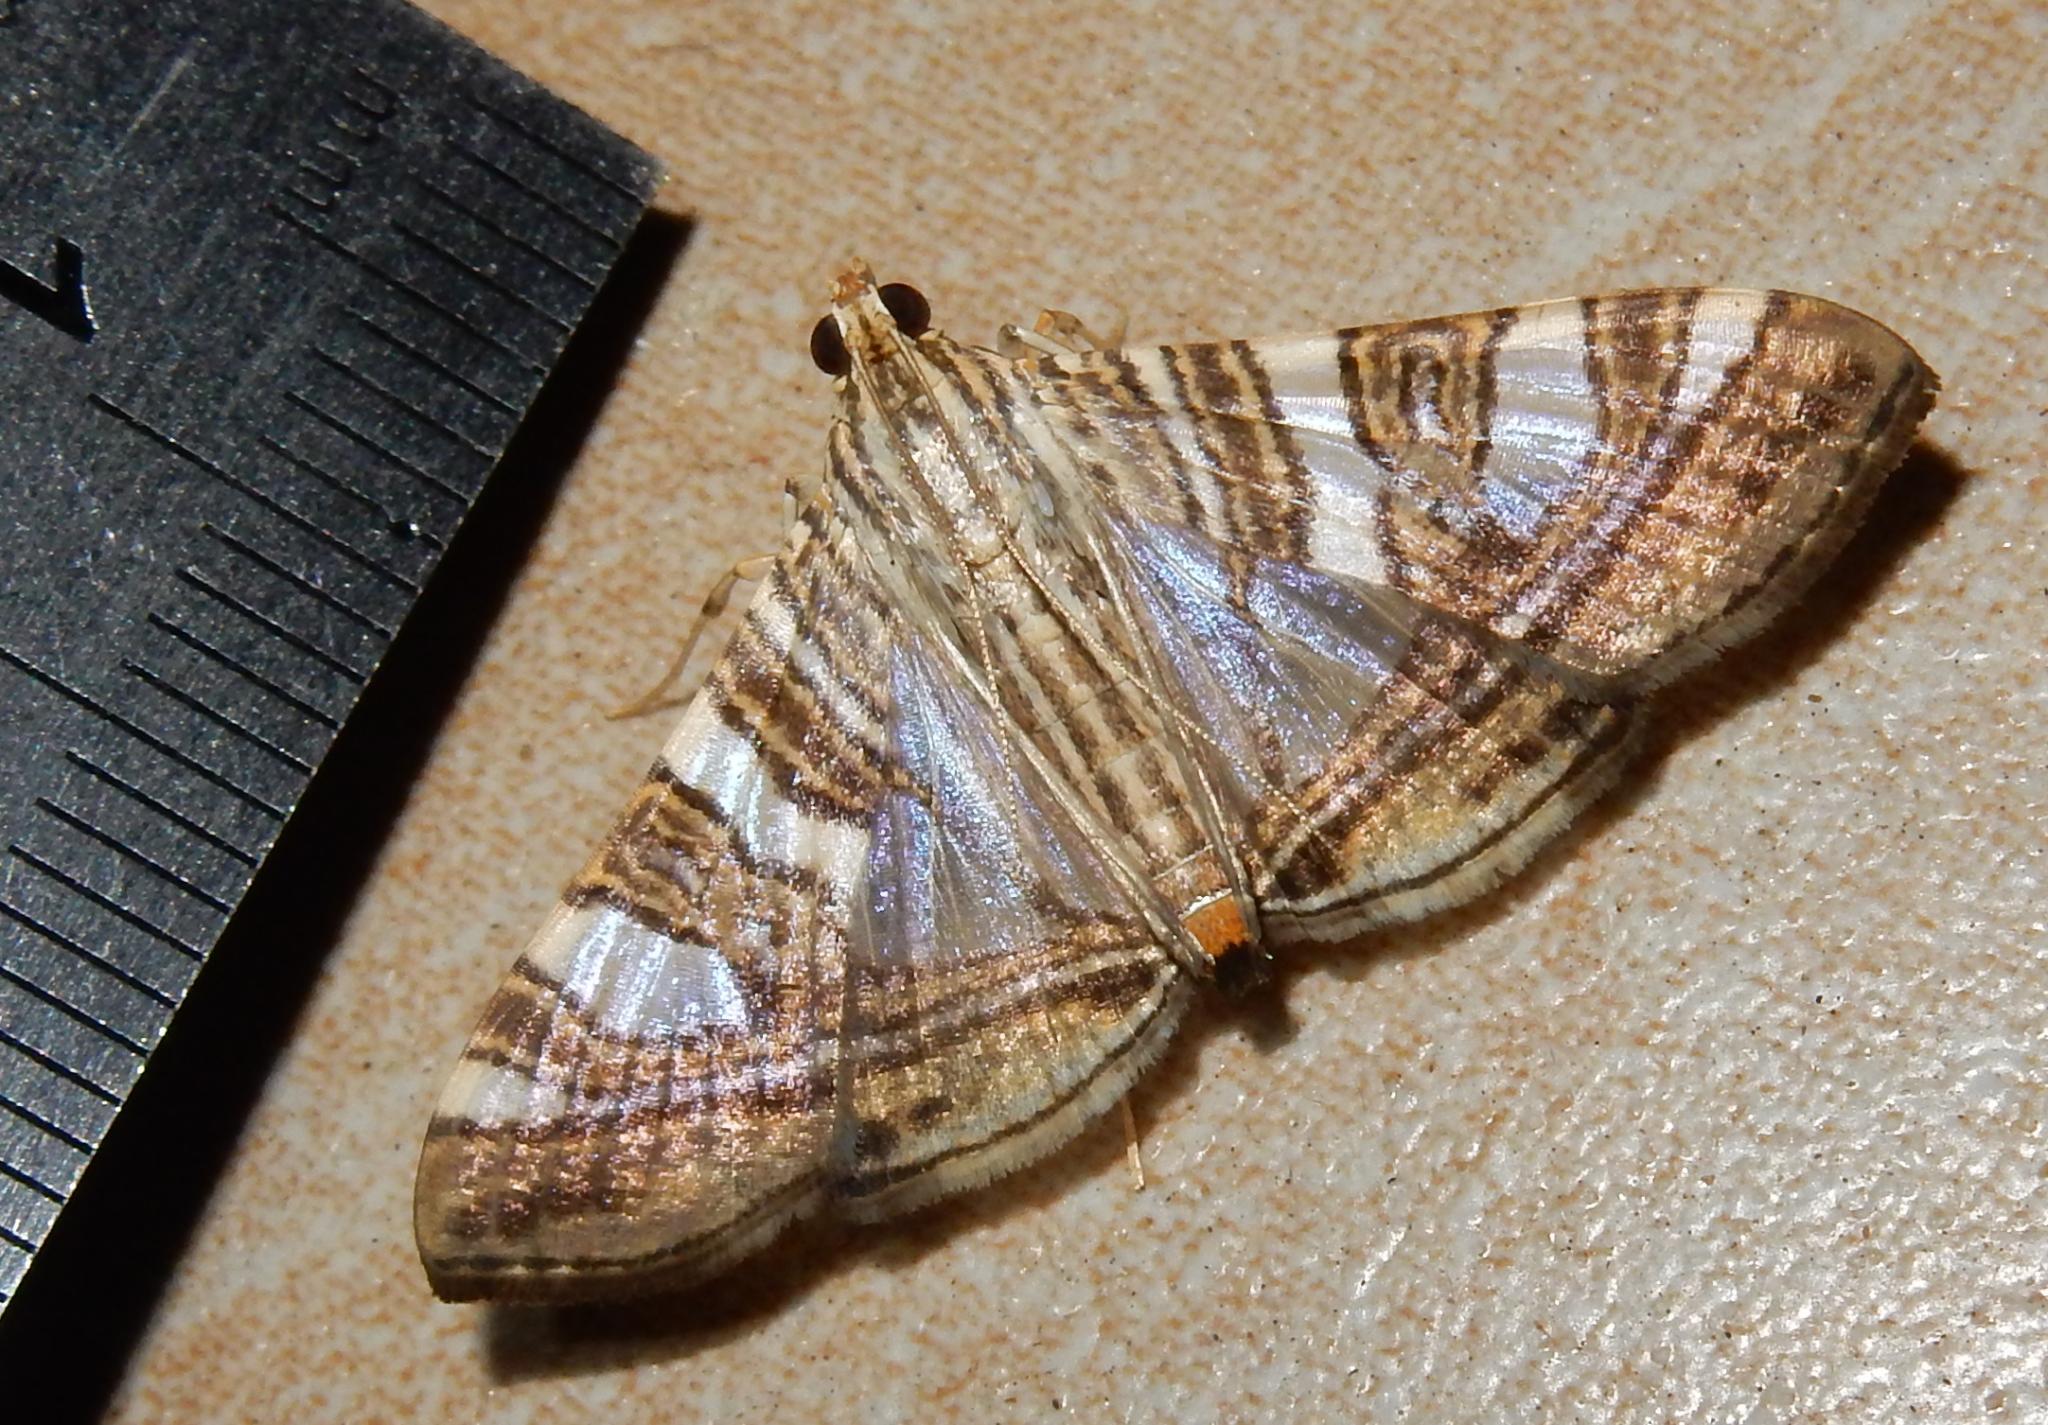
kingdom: Animalia
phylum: Arthropoda
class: Insecta
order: Lepidoptera
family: Crambidae
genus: Glyphodes
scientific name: Glyphodes stolalis
